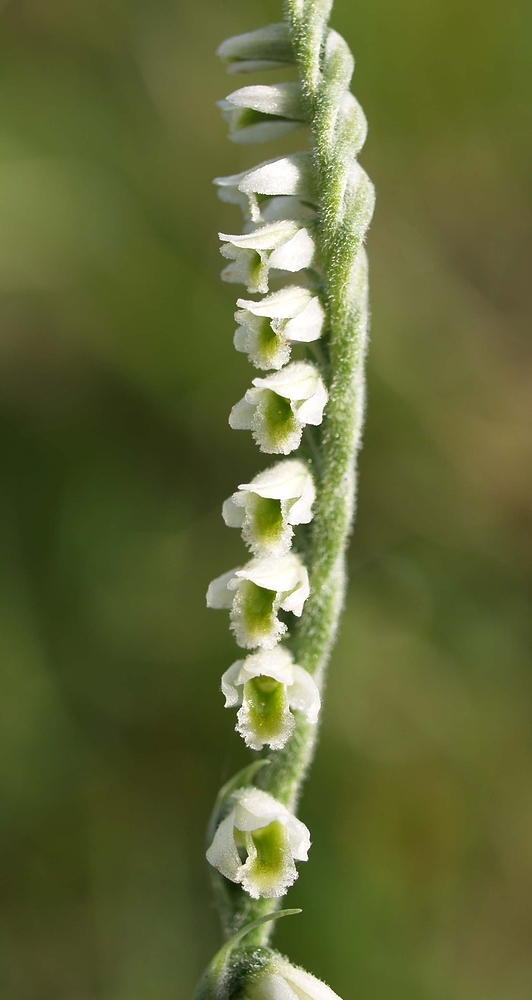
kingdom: Plantae
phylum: Tracheophyta
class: Liliopsida
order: Asparagales
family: Orchidaceae
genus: Spiranthes
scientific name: Spiranthes spiralis
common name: Autumn lady's-tresses
